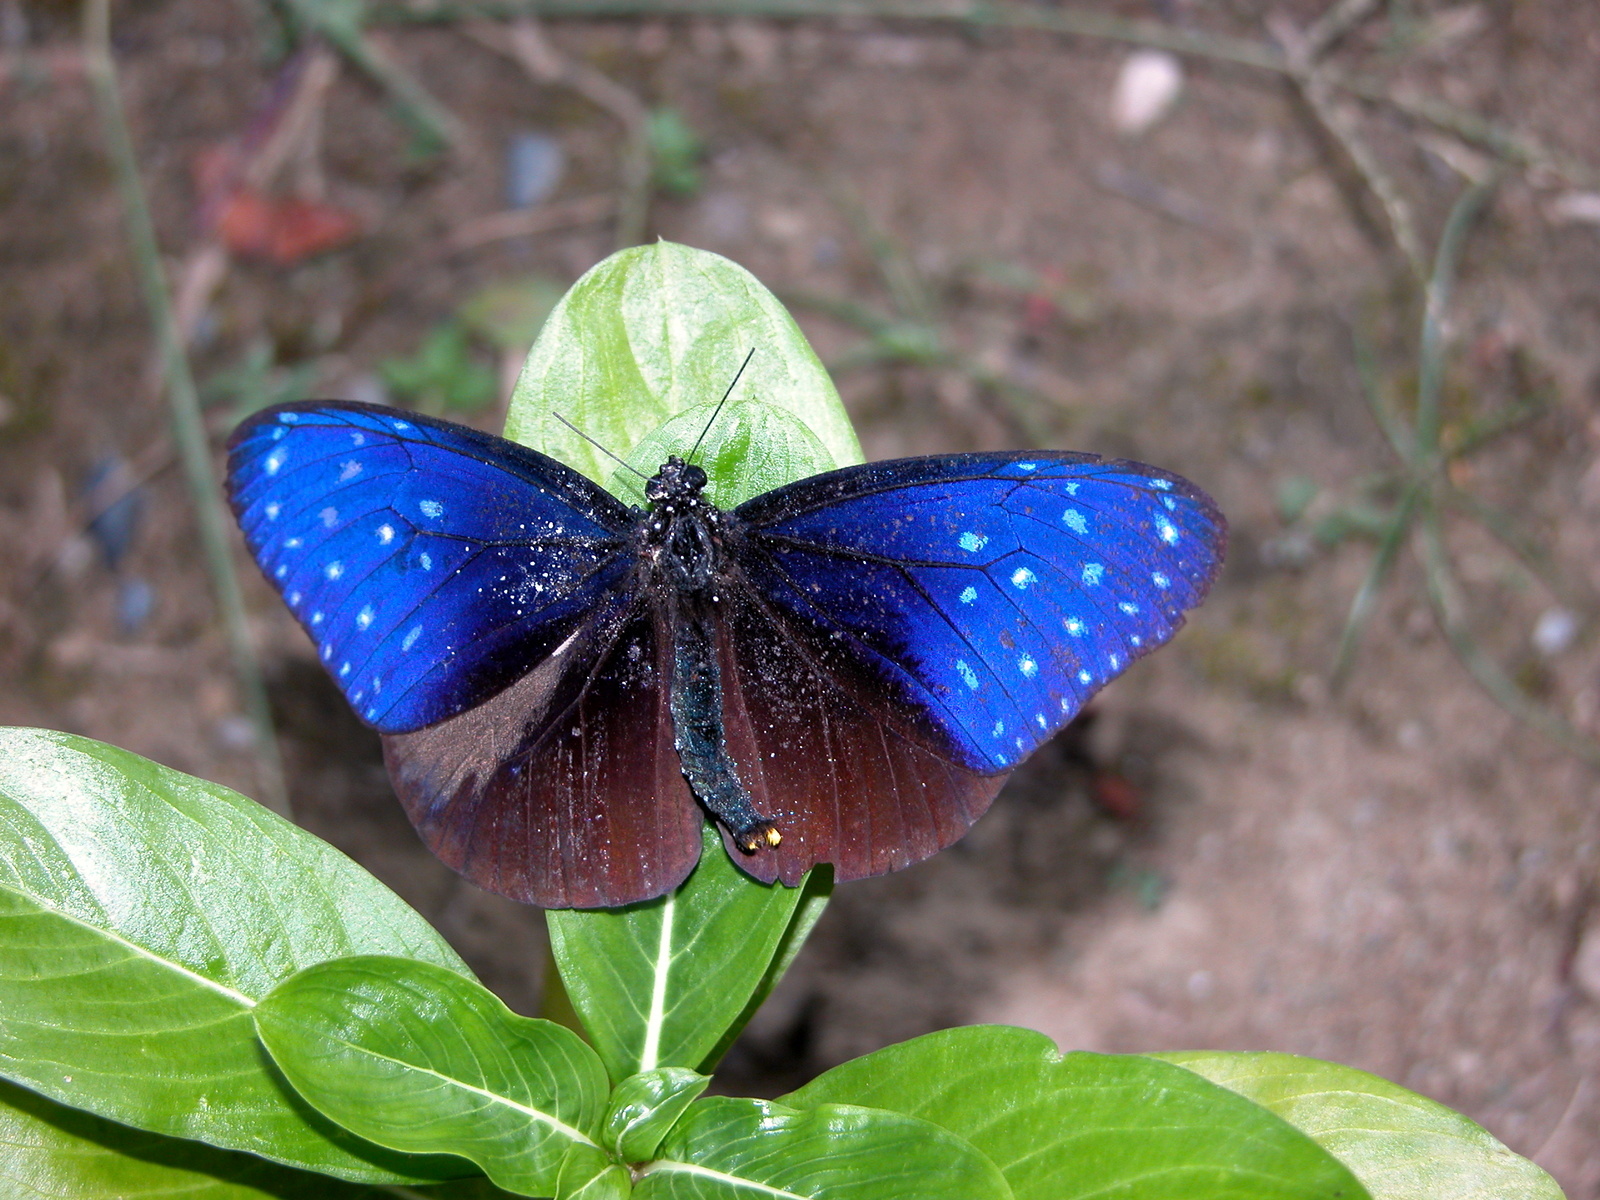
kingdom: Animalia
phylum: Arthropoda
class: Insecta
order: Lepidoptera
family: Nymphalidae
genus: Euploea
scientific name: Euploea mulciber
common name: Striped blue crow butterfly
